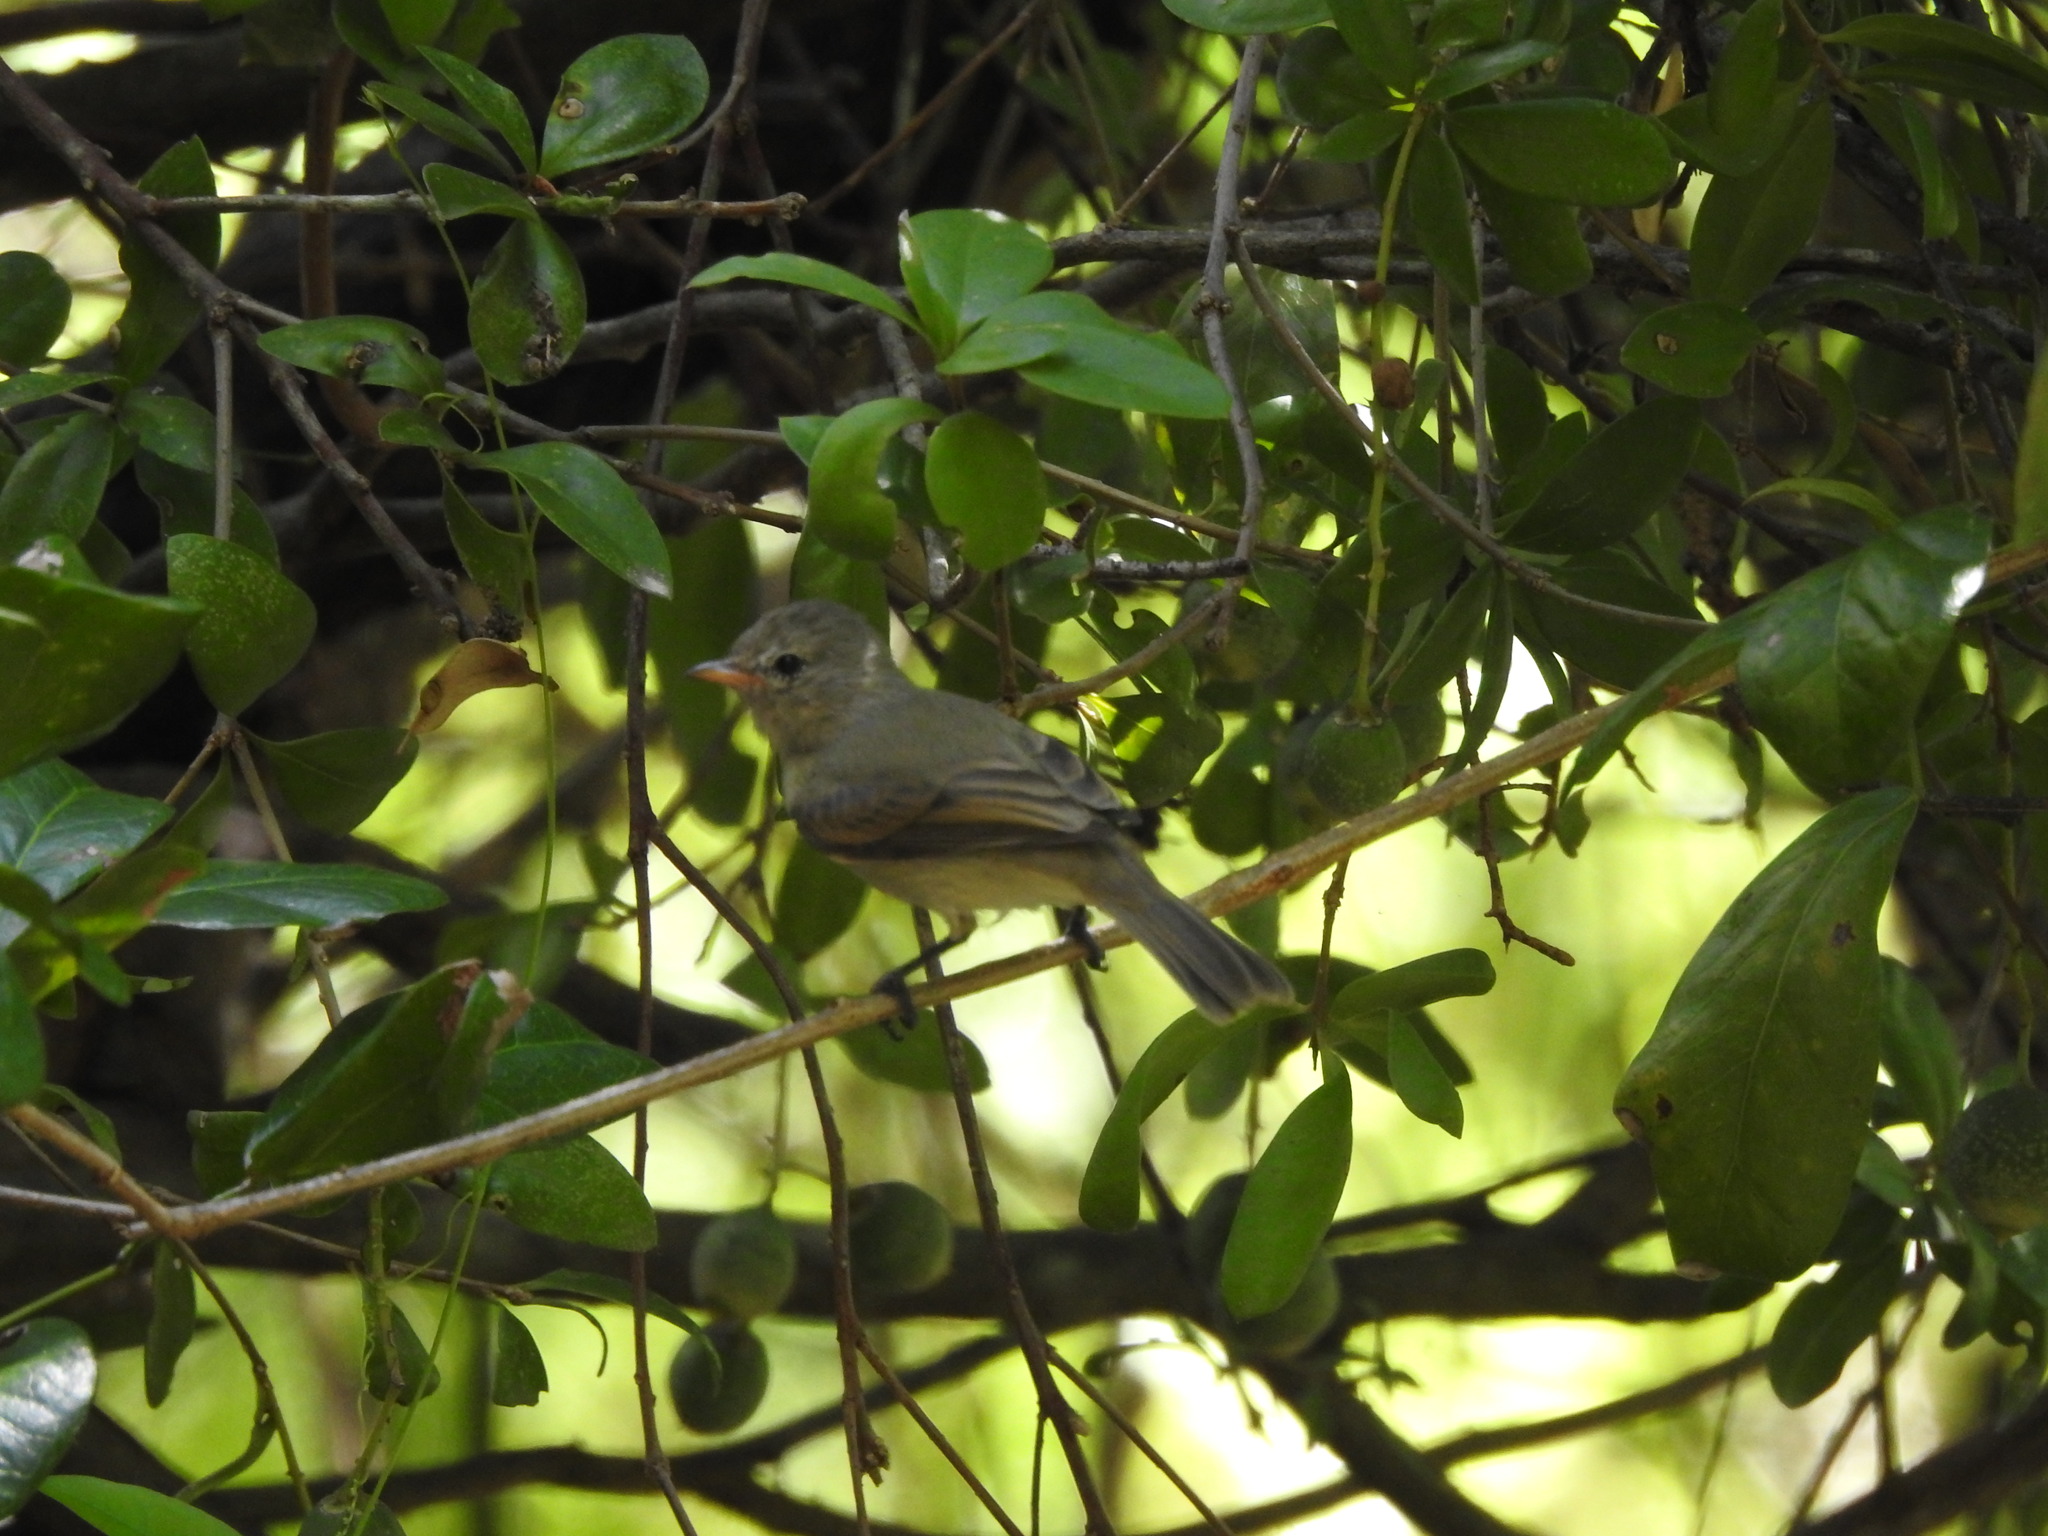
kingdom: Animalia
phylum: Chordata
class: Aves
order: Passeriformes
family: Tyrannidae
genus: Camptostoma
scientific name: Camptostoma imberbe
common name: Northern beardless-tyrannulet
